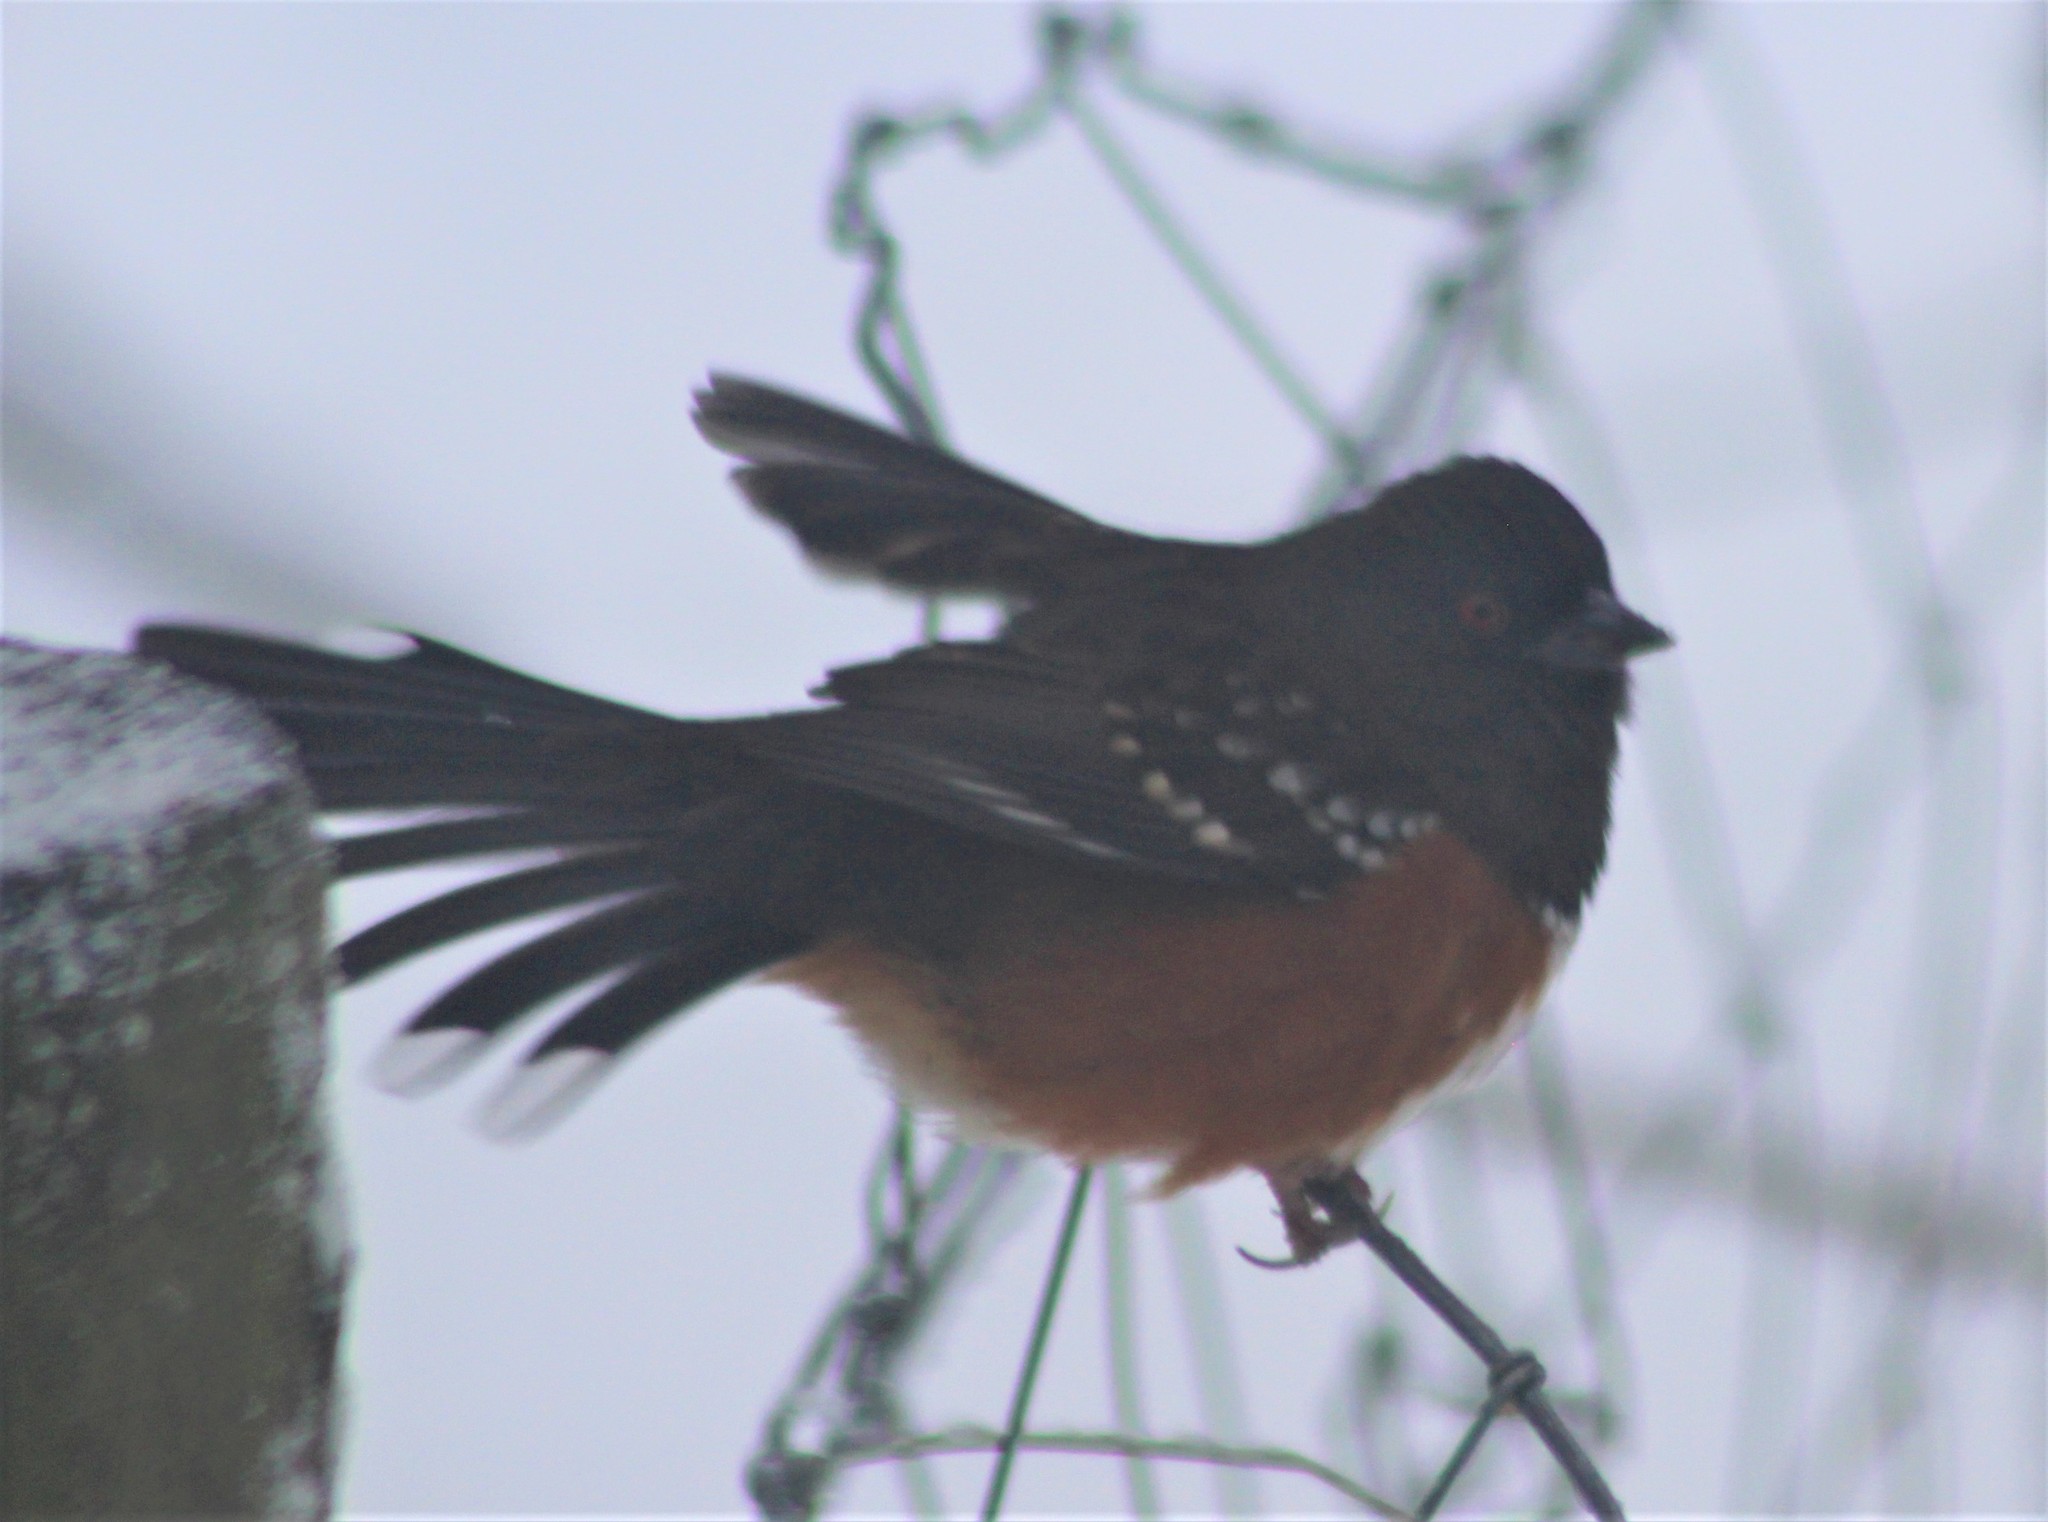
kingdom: Animalia
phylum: Chordata
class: Aves
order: Passeriformes
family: Passerellidae
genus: Pipilo
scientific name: Pipilo maculatus
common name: Spotted towhee
